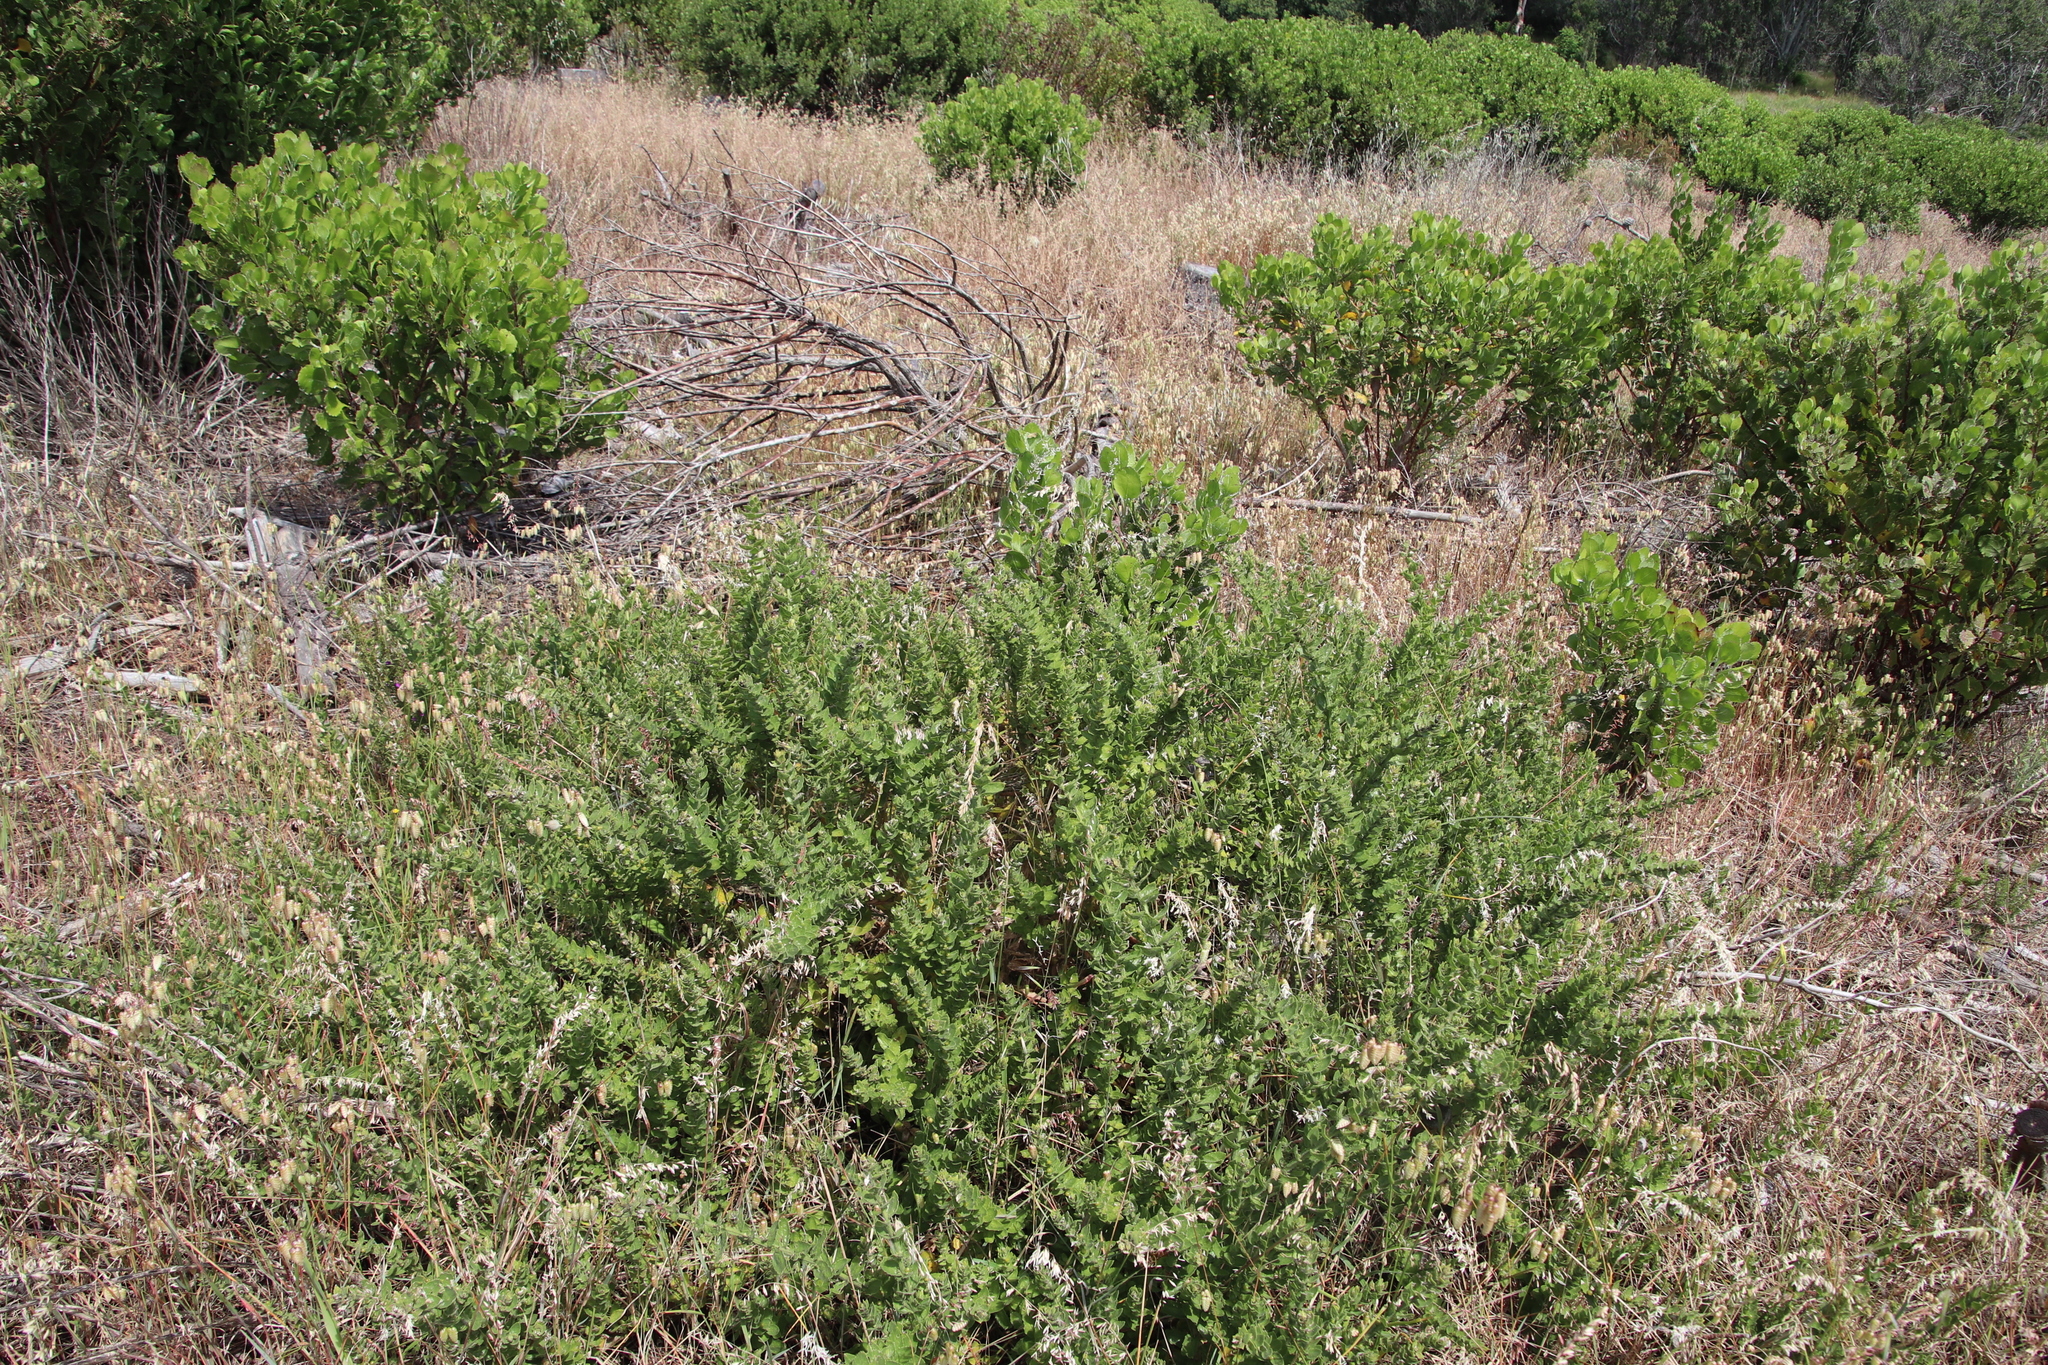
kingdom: Plantae
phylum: Tracheophyta
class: Magnoliopsida
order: Lamiales
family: Scrophulariaceae
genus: Oftia
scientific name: Oftia africana
